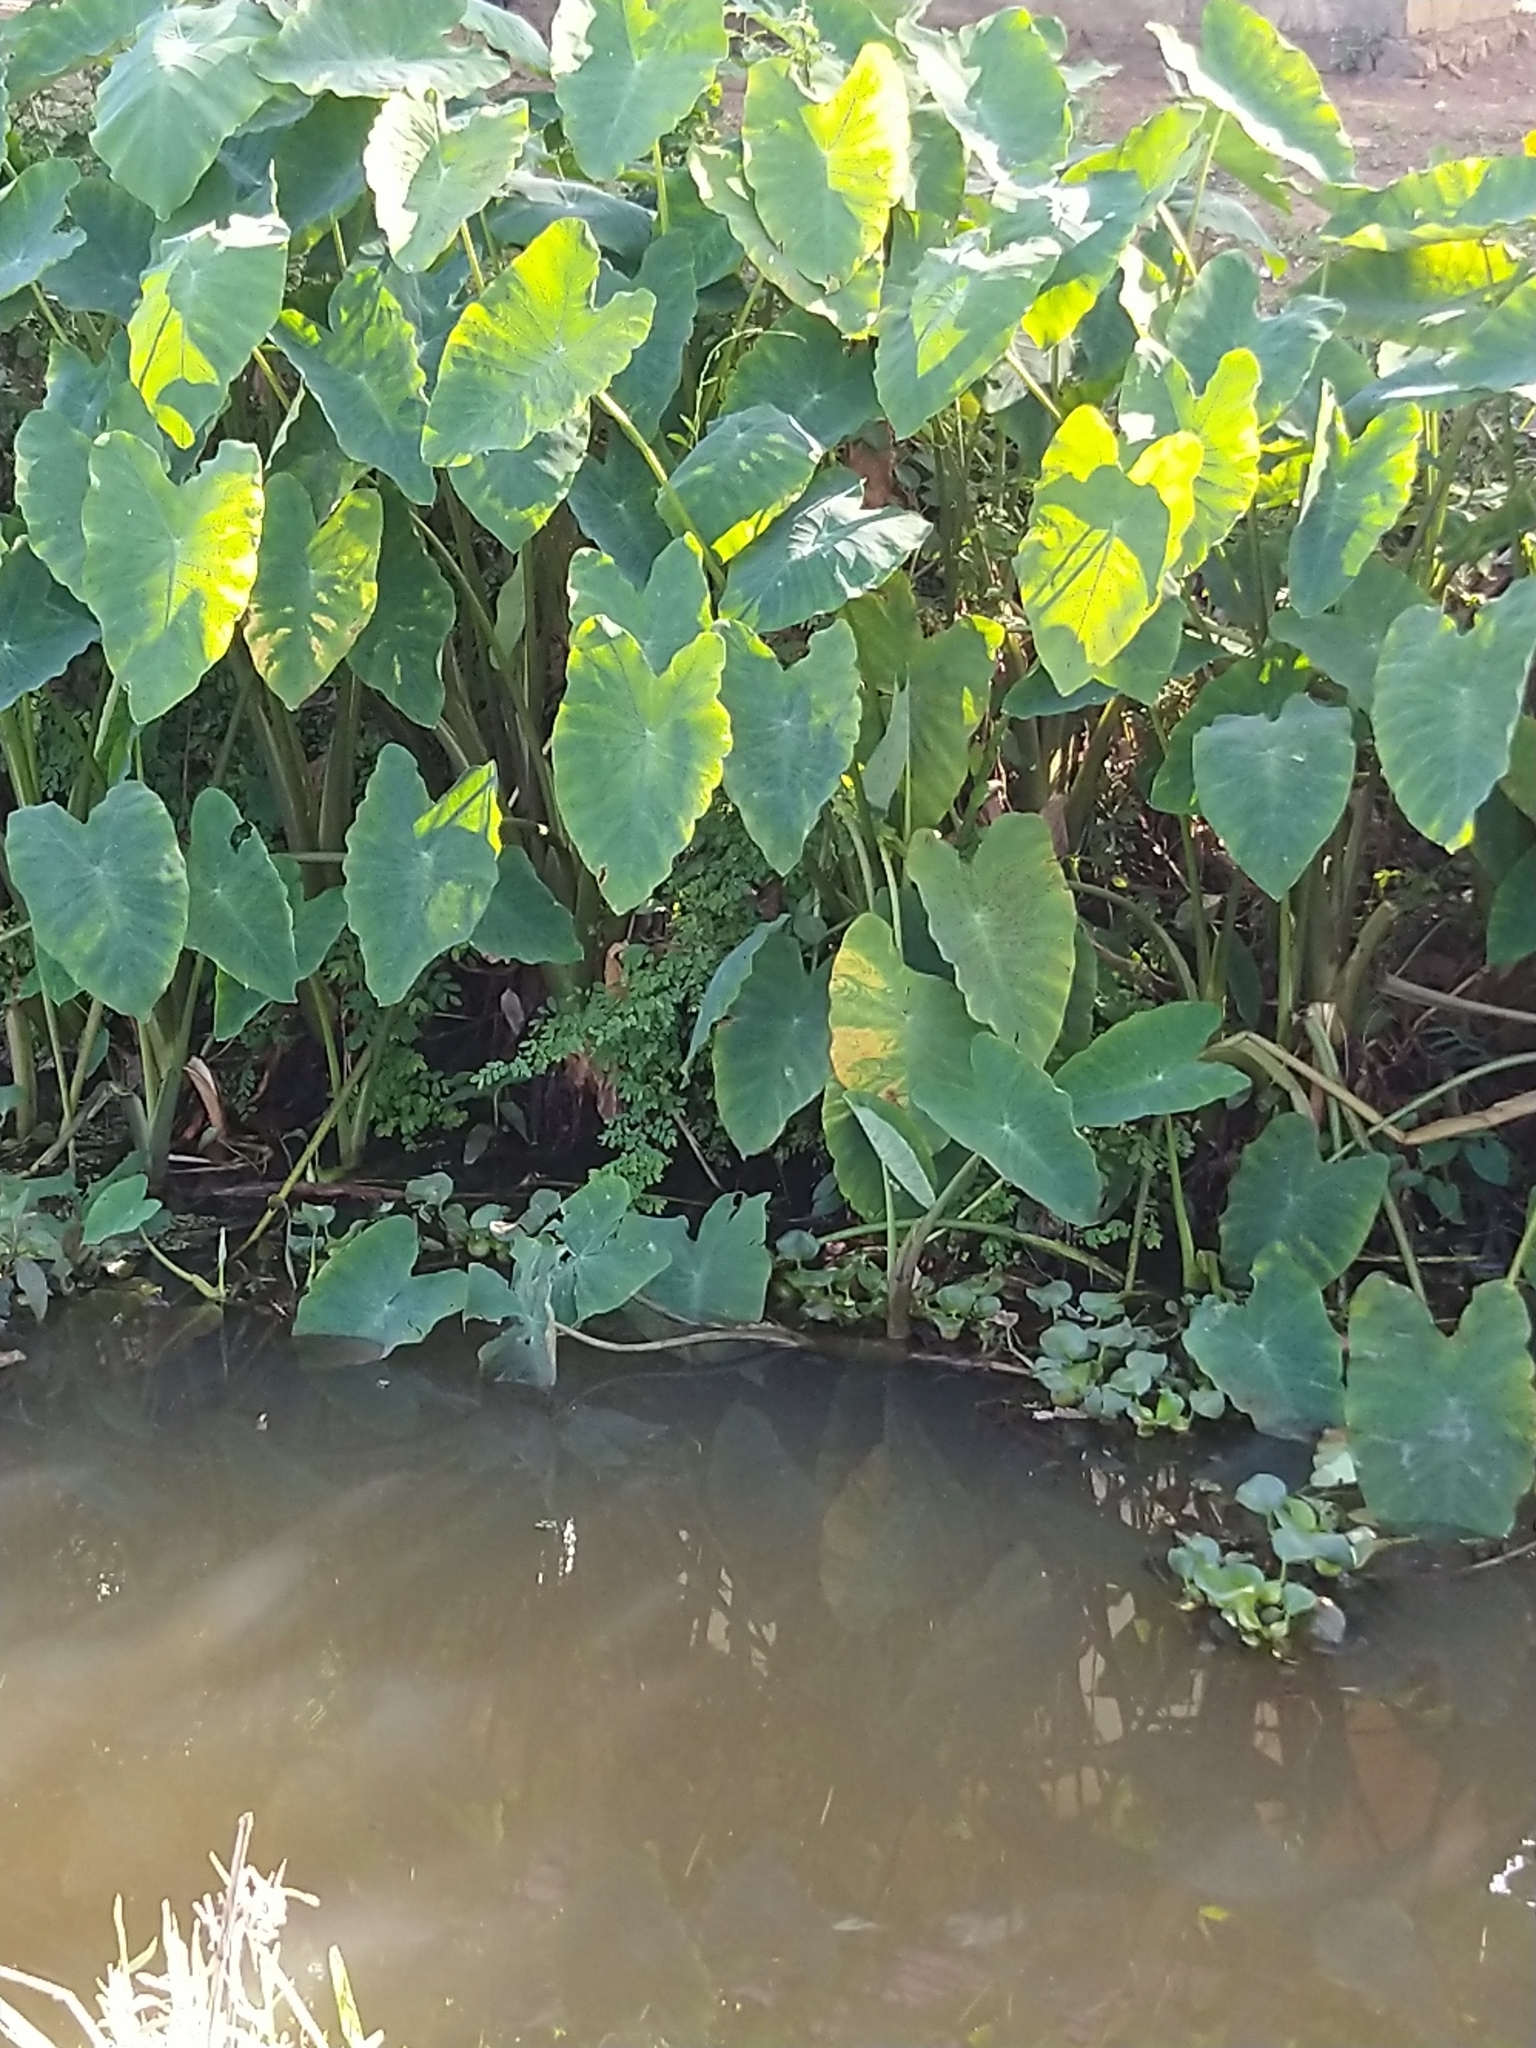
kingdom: Plantae
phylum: Tracheophyta
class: Liliopsida
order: Alismatales
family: Araceae
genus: Colocasia
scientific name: Colocasia esculenta
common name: Taro
